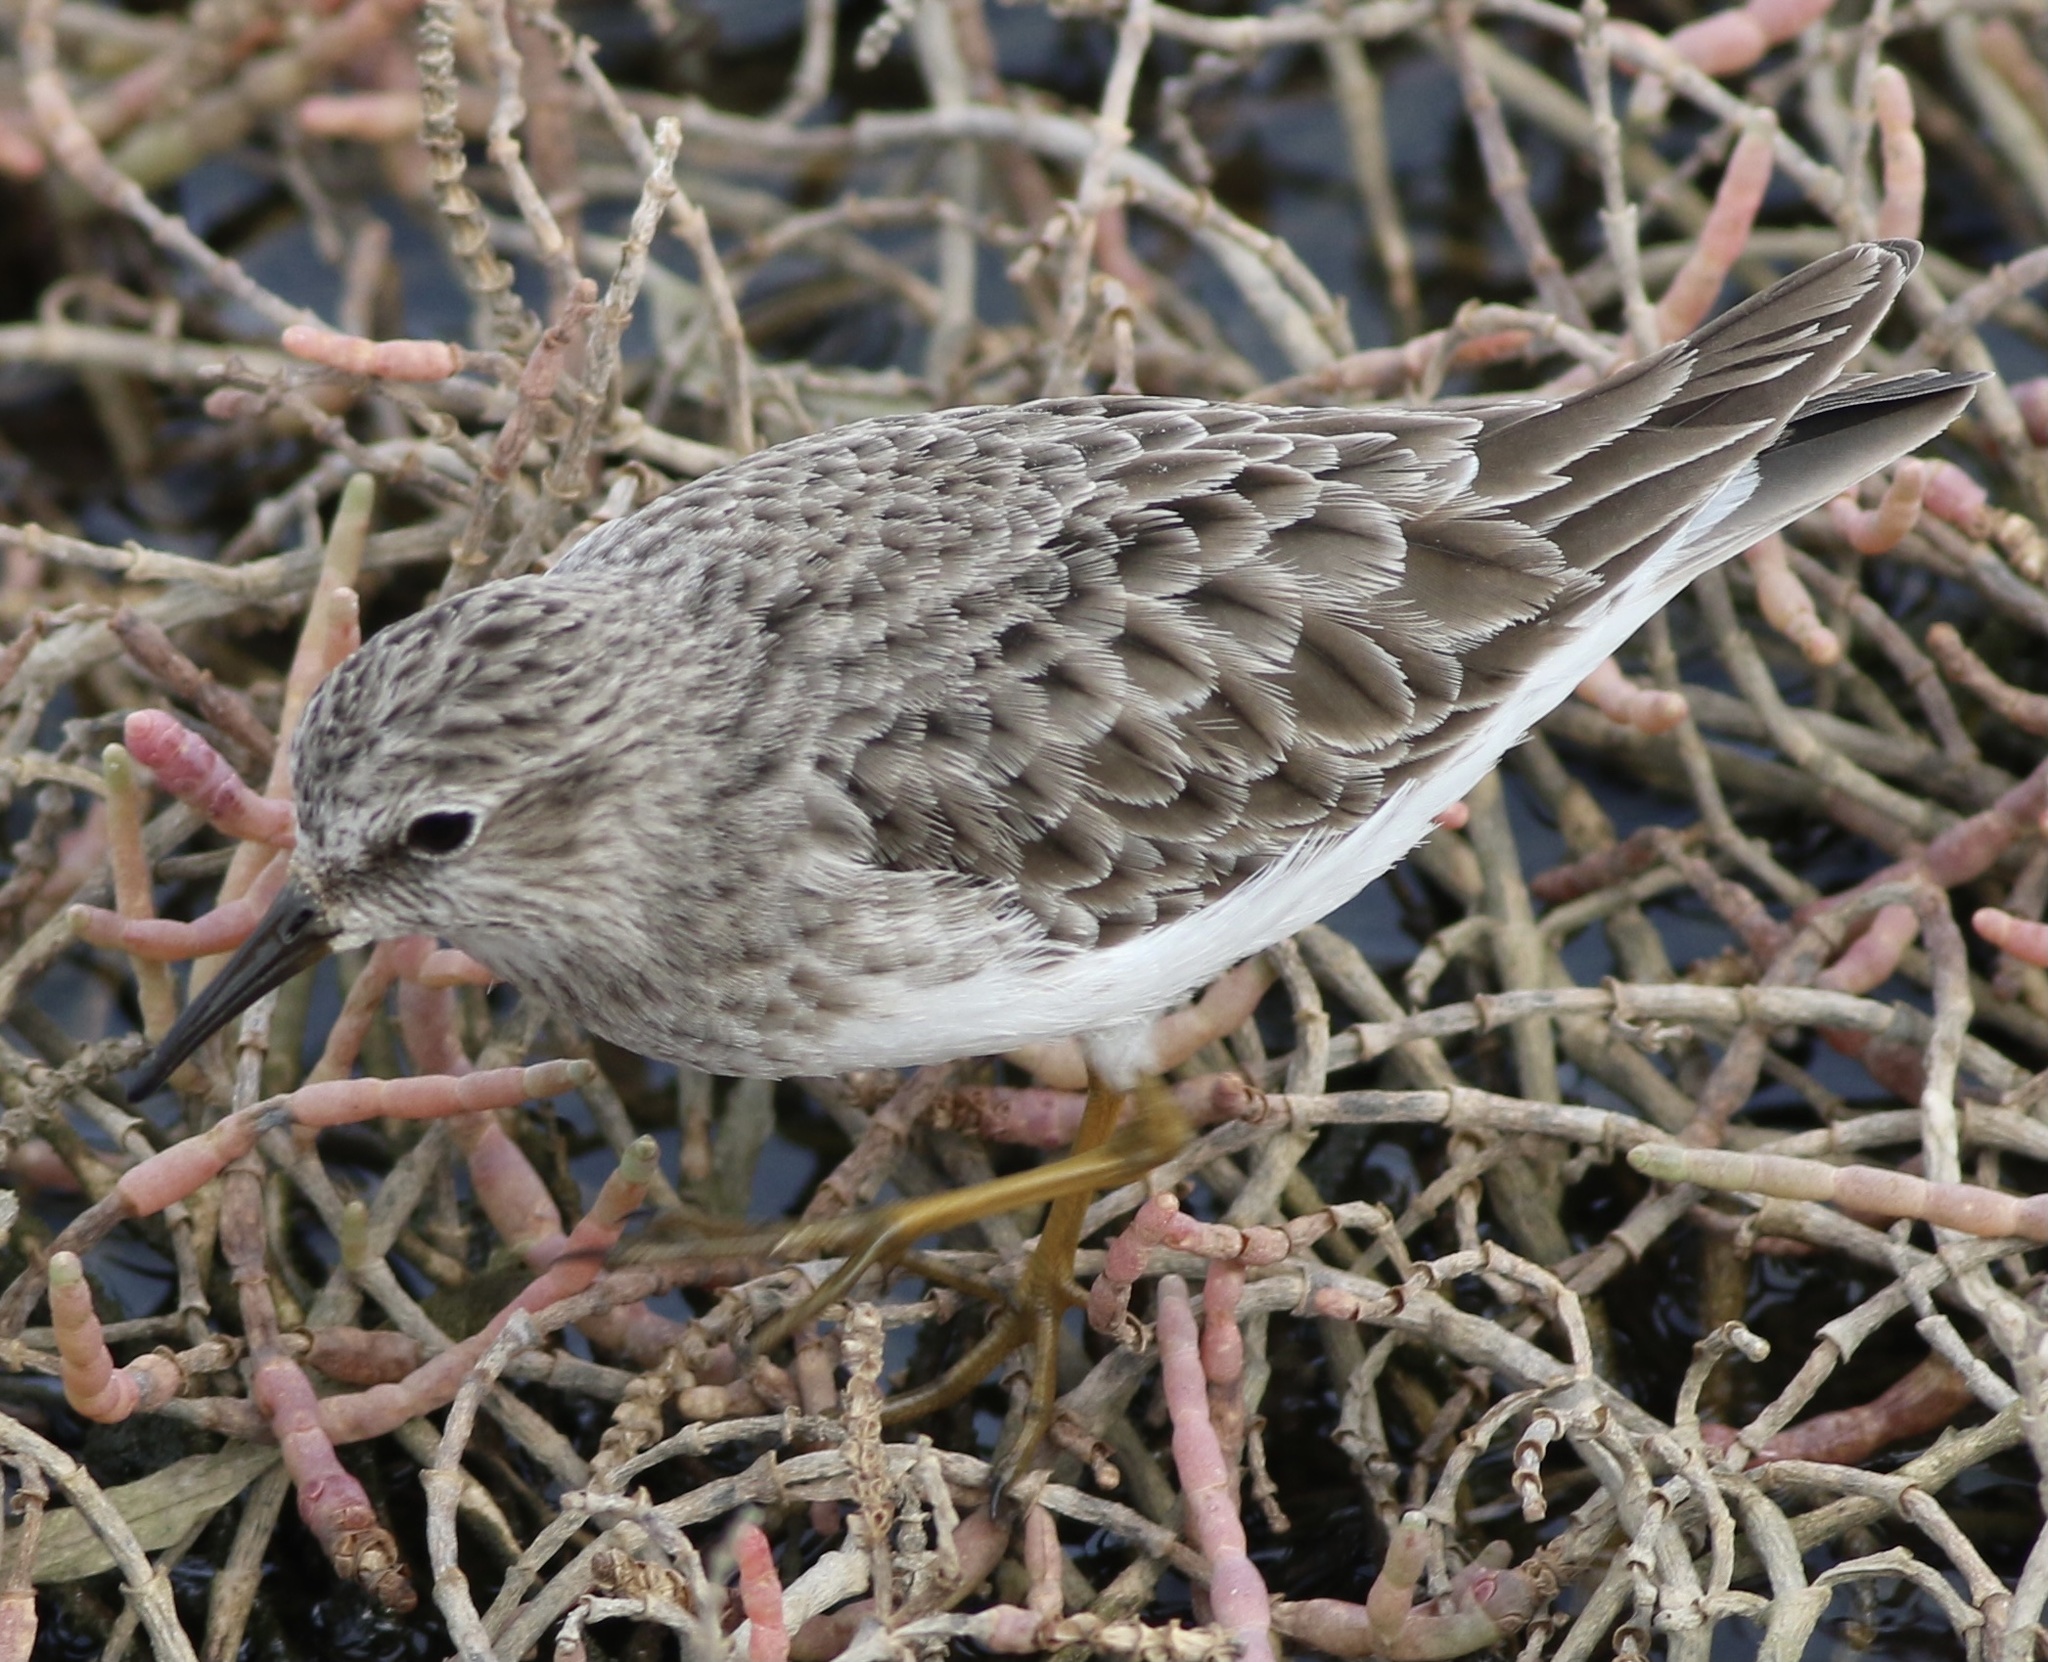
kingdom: Animalia
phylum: Chordata
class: Aves
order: Charadriiformes
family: Scolopacidae
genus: Calidris
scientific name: Calidris minutilla
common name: Least sandpiper
